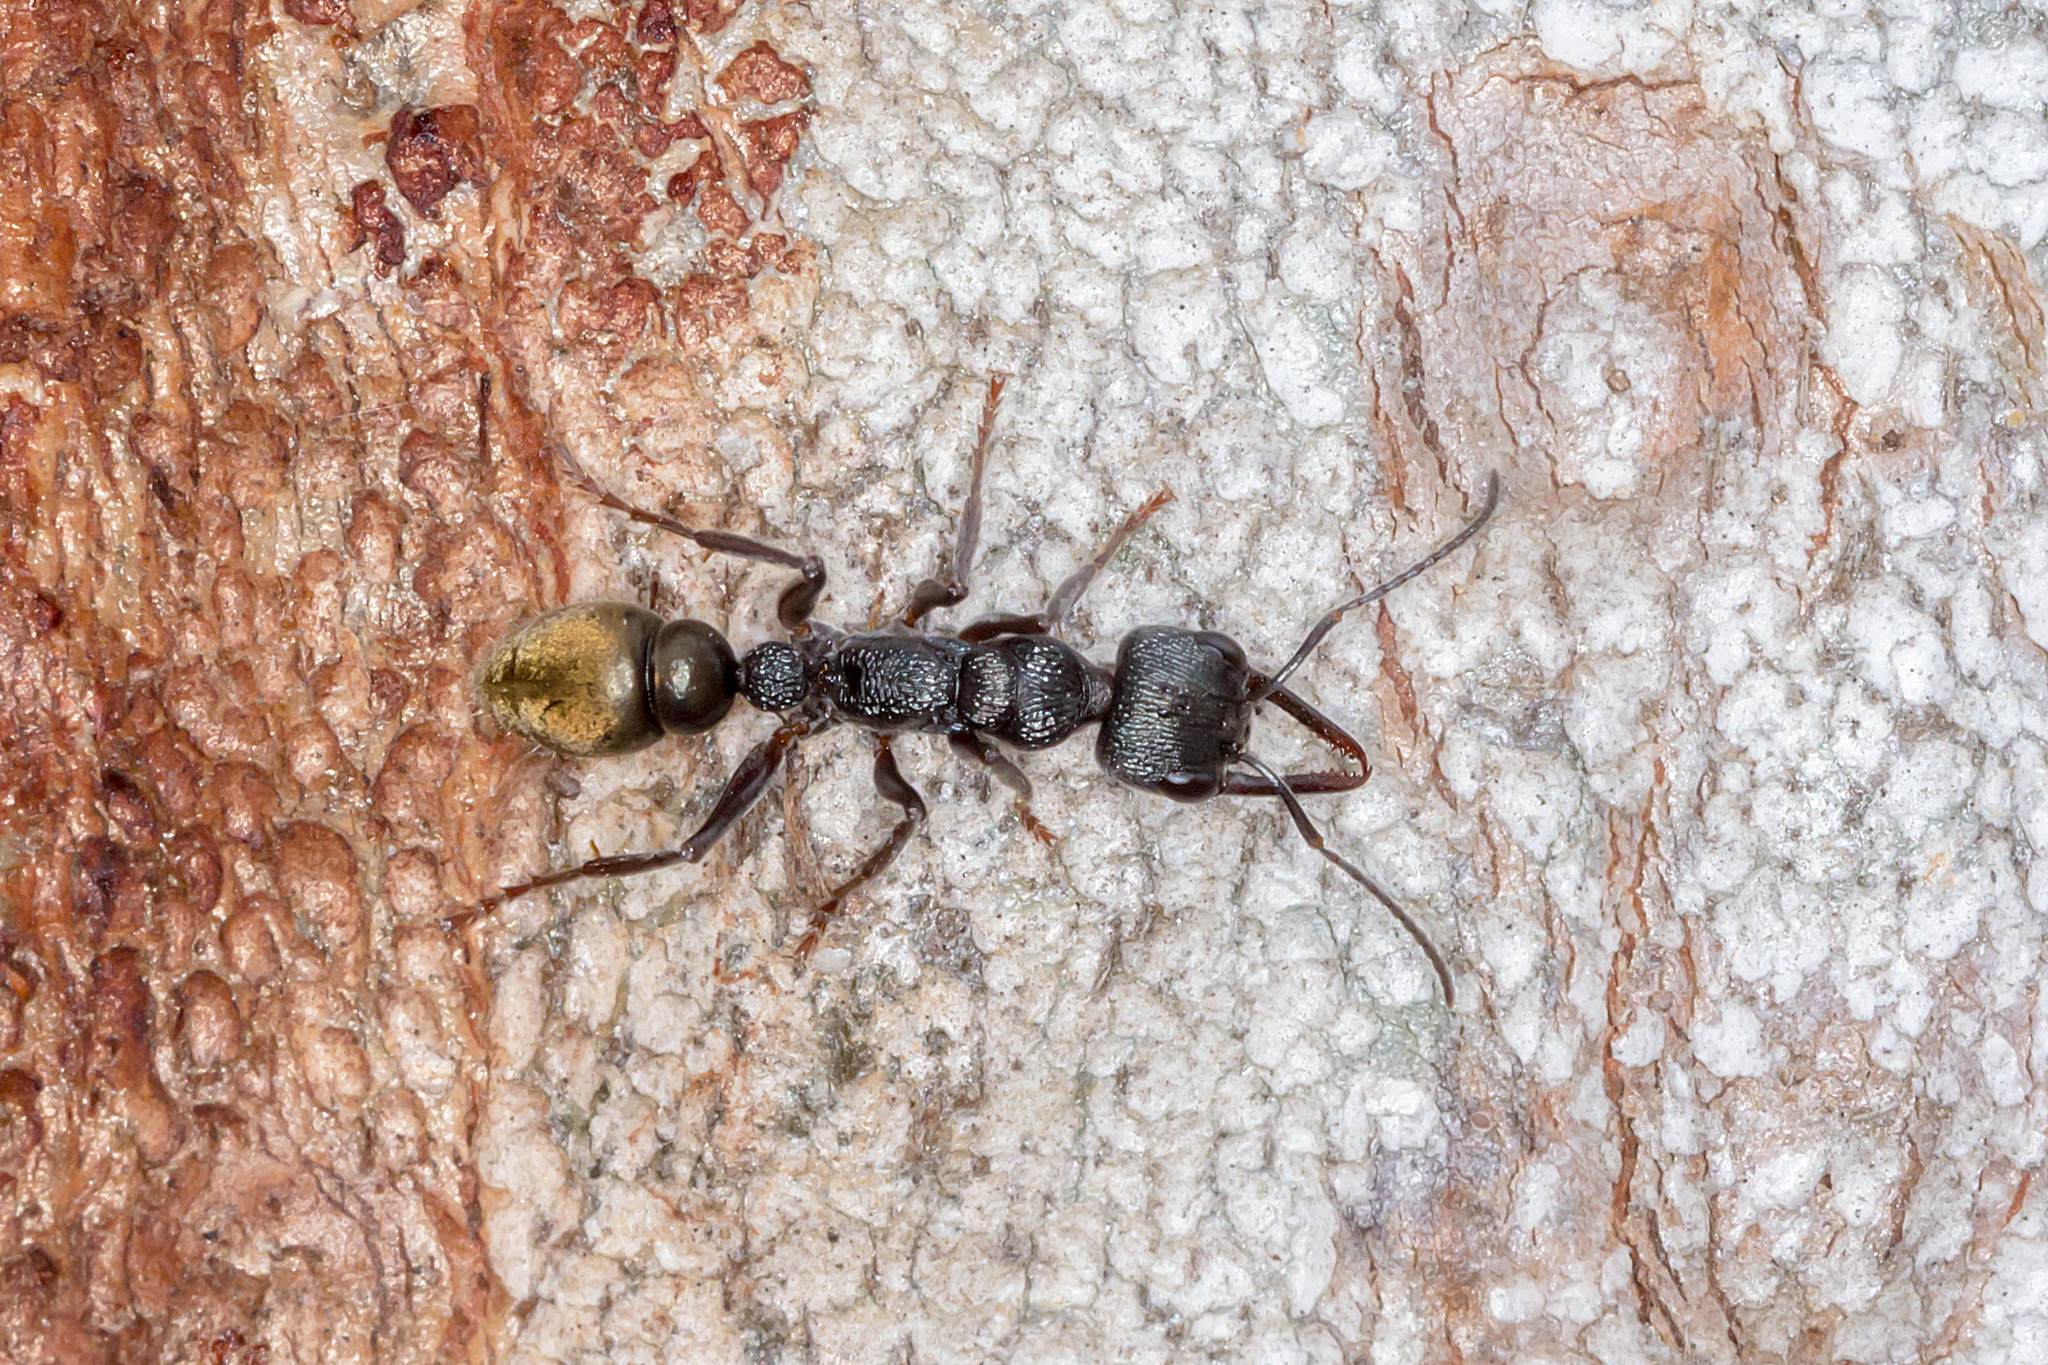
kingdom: Animalia
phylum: Arthropoda
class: Insecta
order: Hymenoptera
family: Formicidae
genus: Myrmecia
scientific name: Myrmecia piliventris
